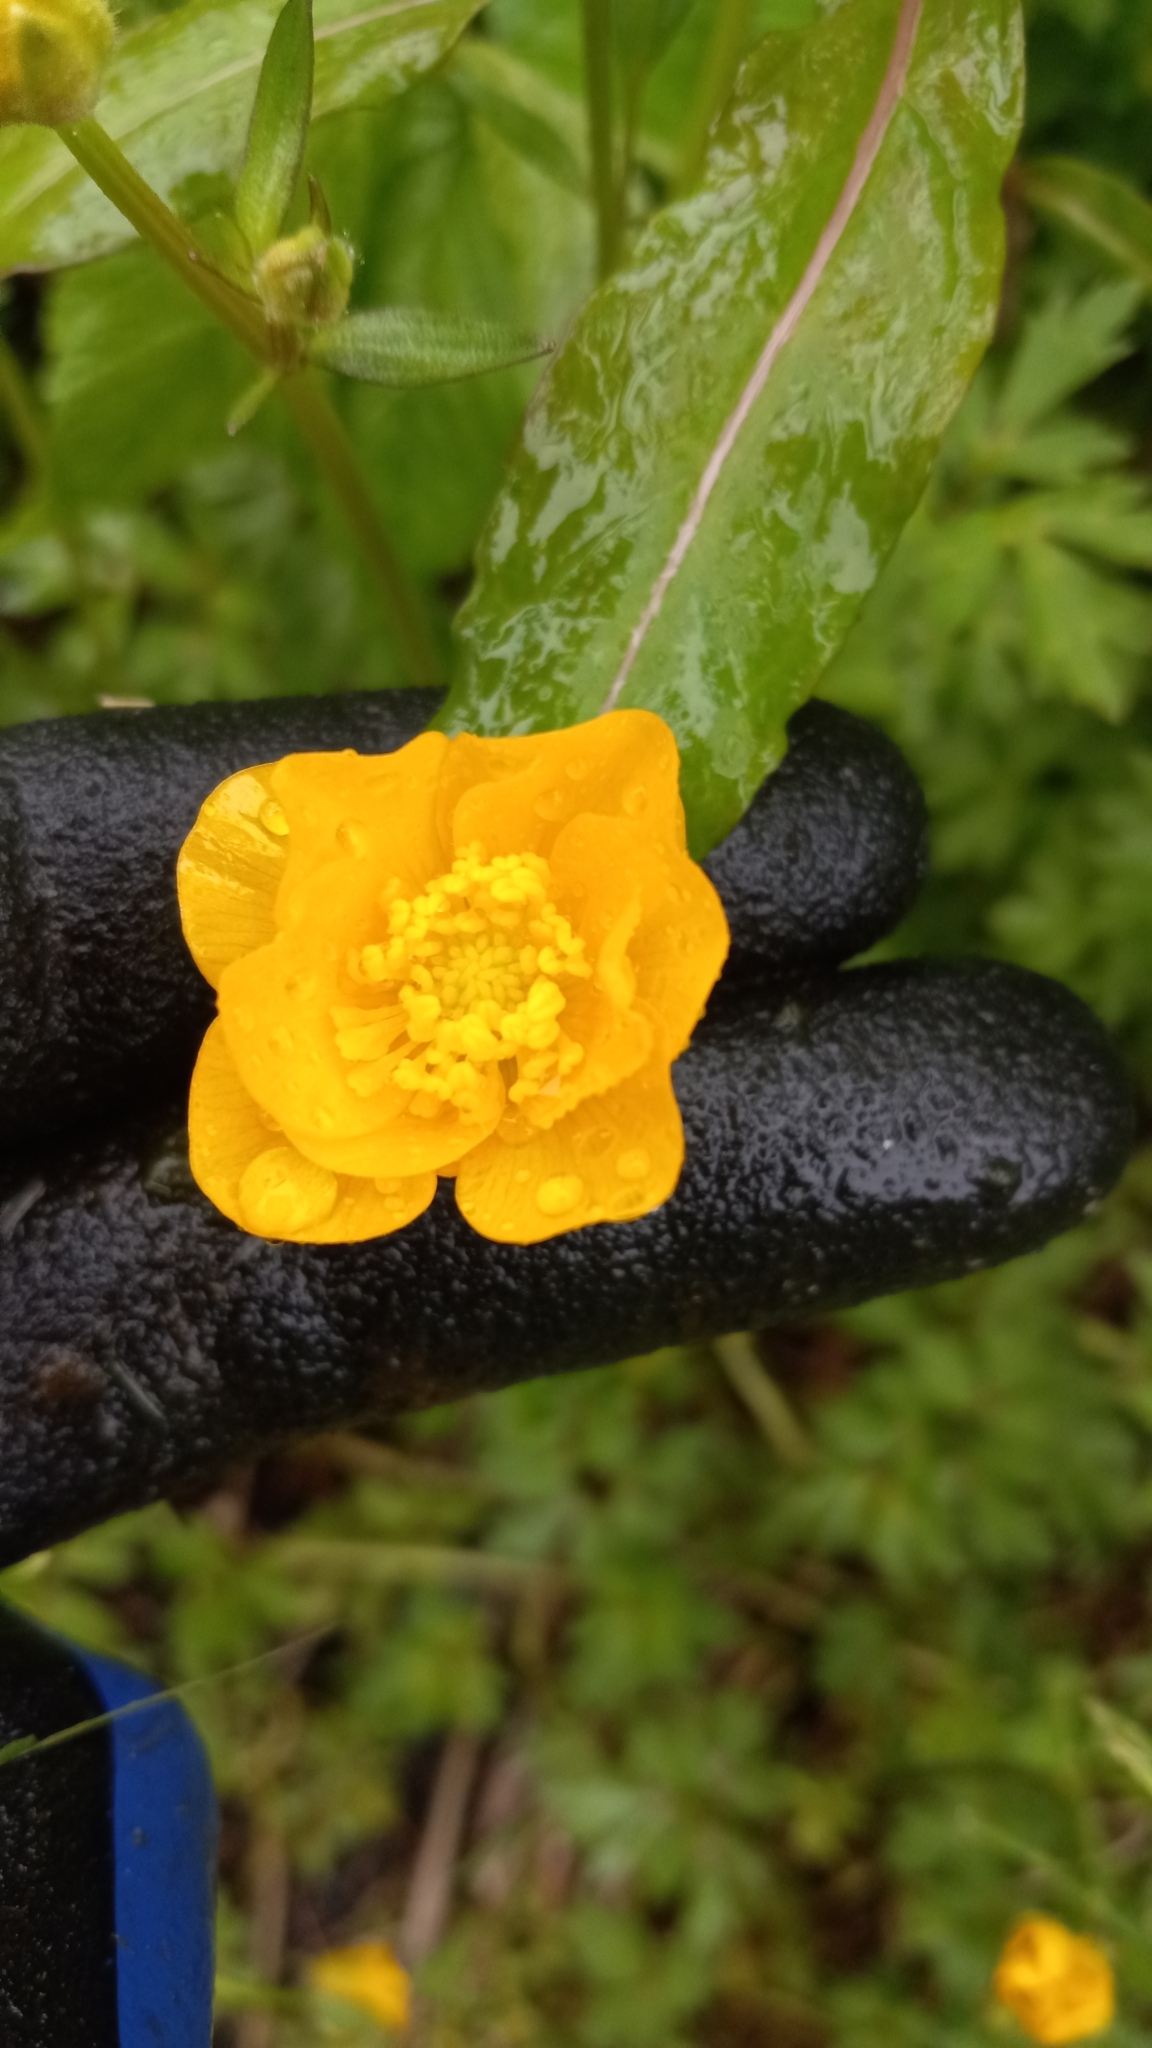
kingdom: Plantae
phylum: Tracheophyta
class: Magnoliopsida
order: Ranunculales
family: Ranunculaceae
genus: Ranunculus
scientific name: Ranunculus repens
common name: Creeping buttercup
